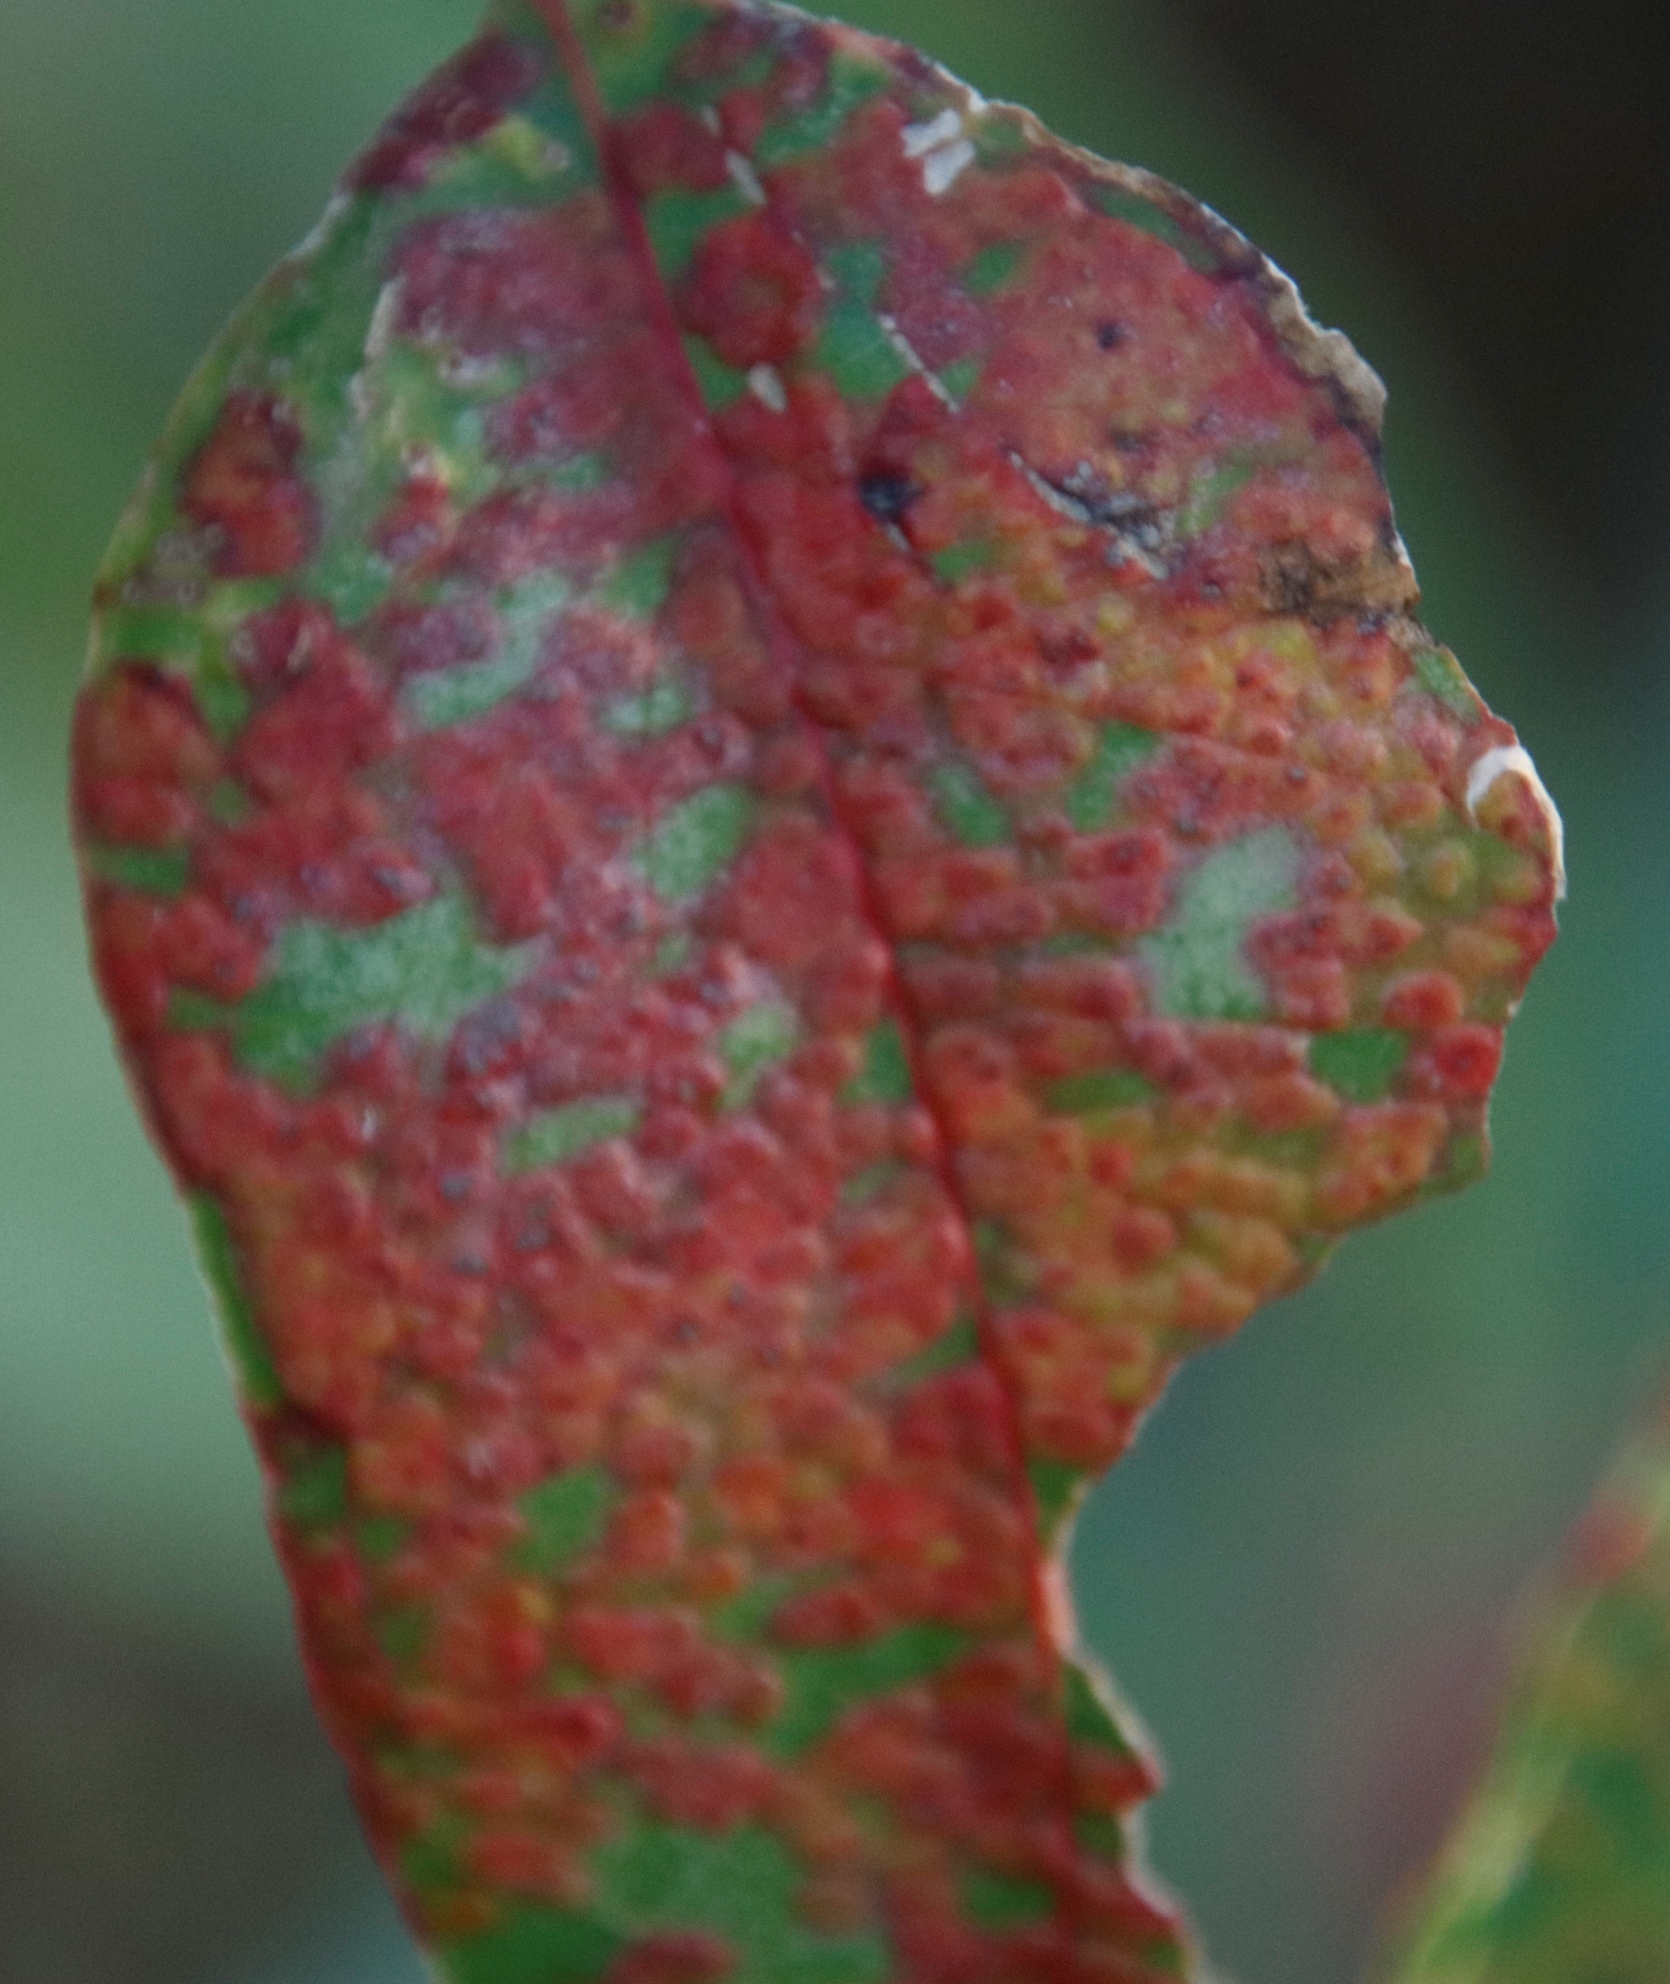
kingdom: Animalia
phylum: Arthropoda
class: Insecta
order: Hymenoptera
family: Eulophidae
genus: Ophelimus
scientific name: Ophelimus maskelli
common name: Gall wasp
